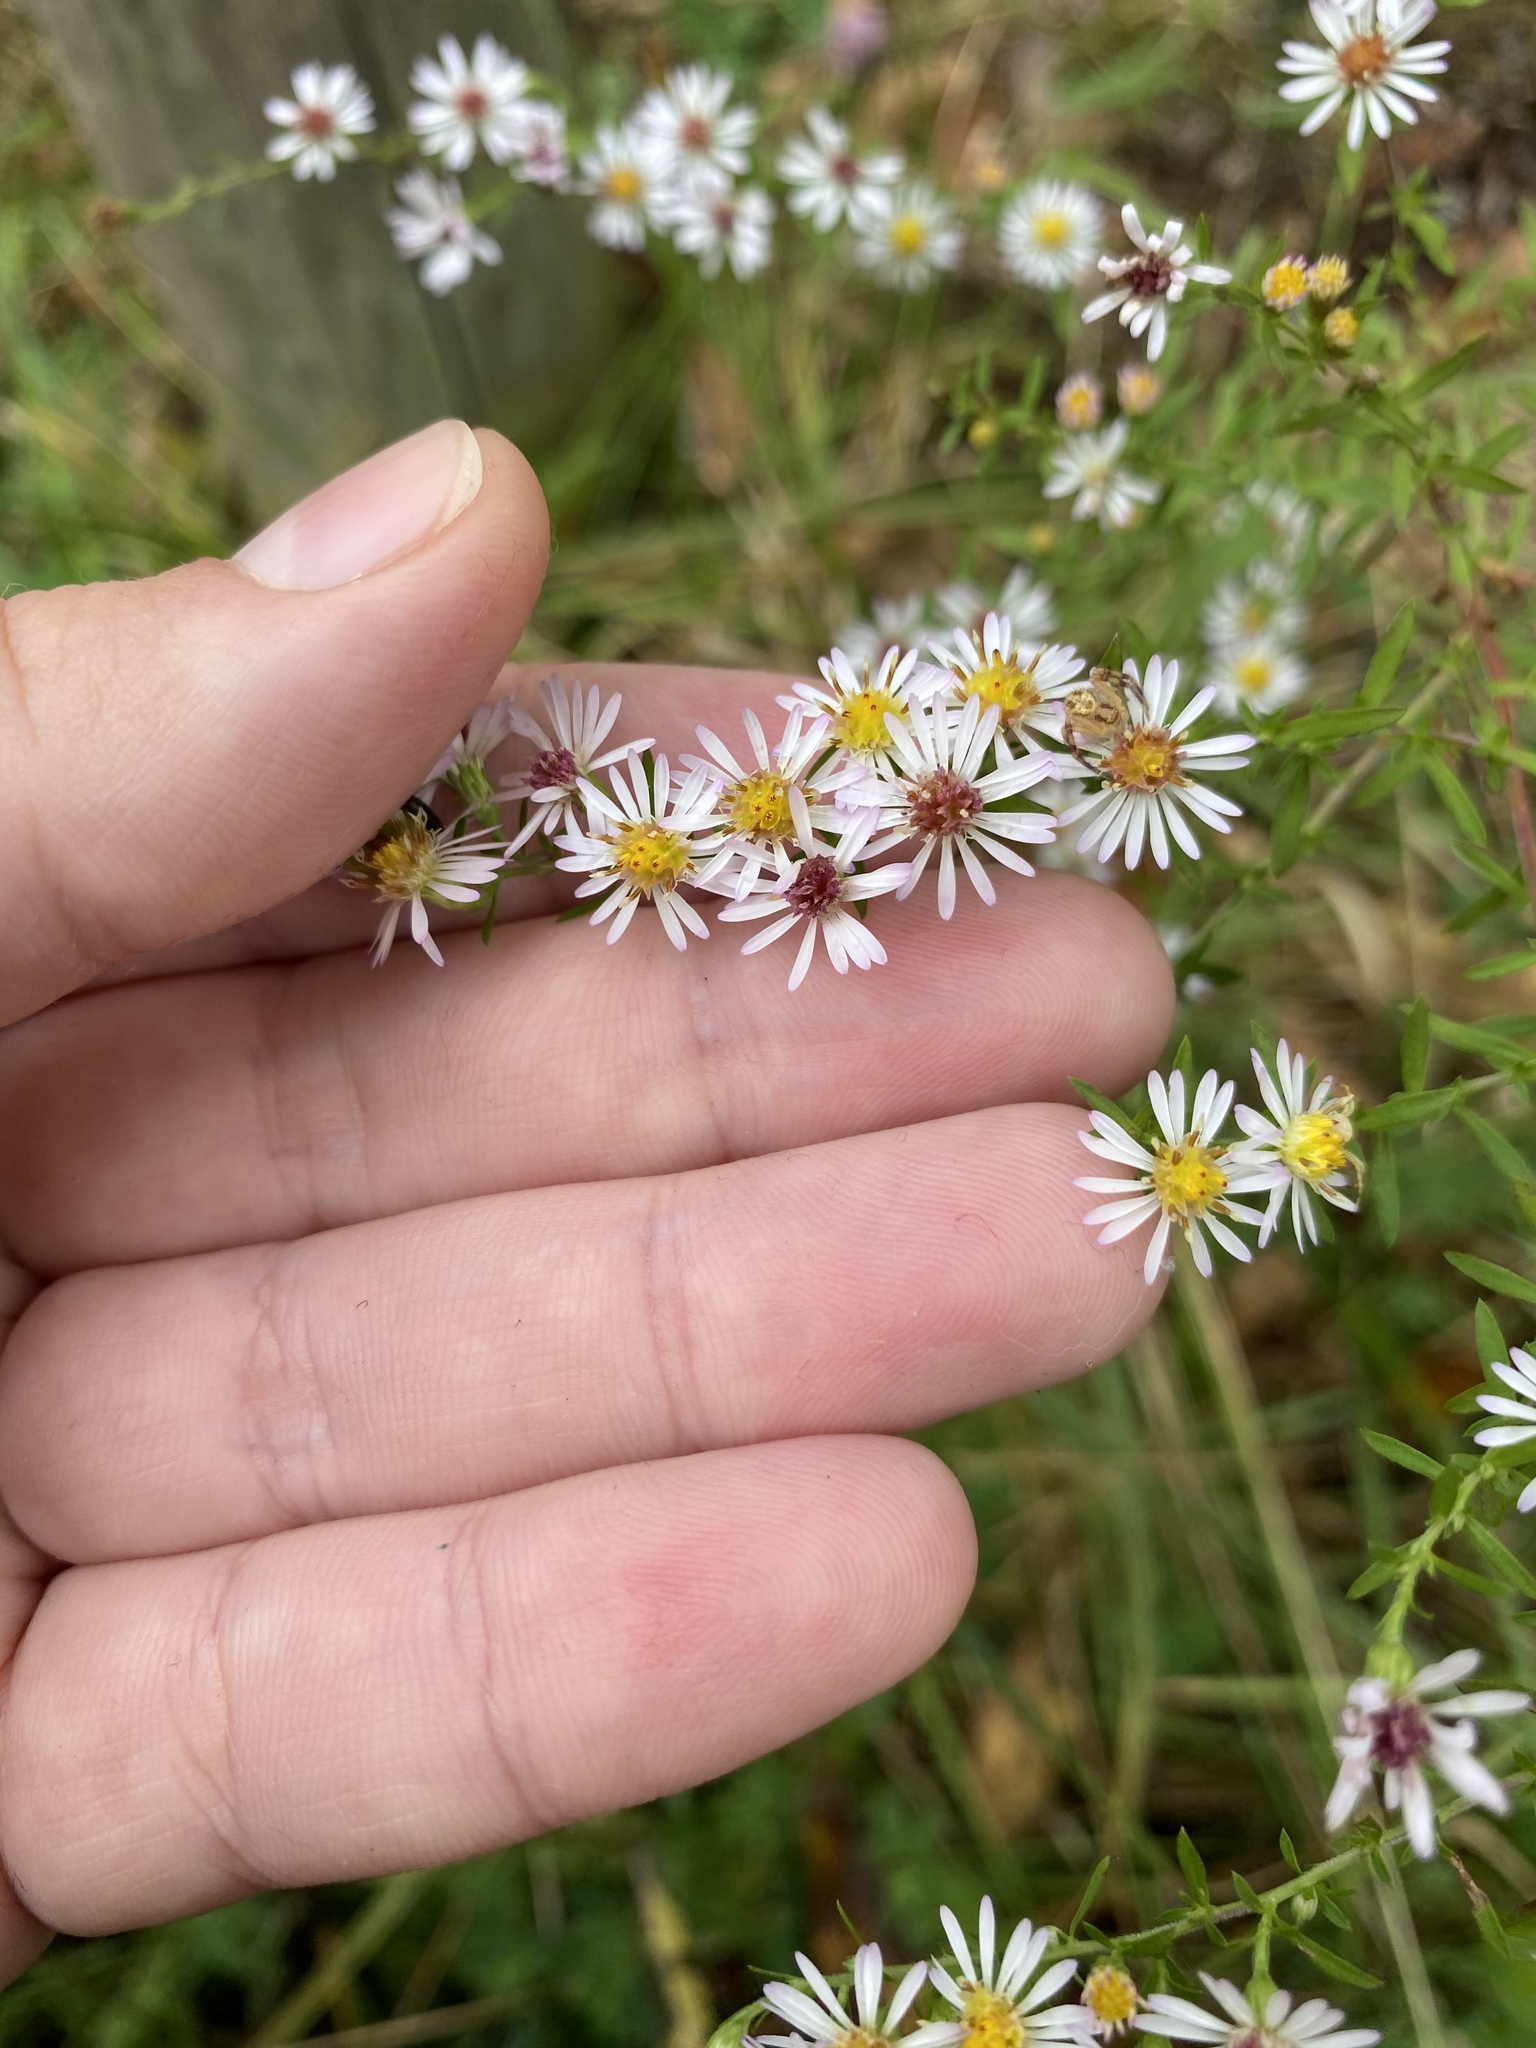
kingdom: Plantae
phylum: Tracheophyta
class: Magnoliopsida
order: Asterales
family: Asteraceae
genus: Symphyotrichum
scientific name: Symphyotrichum racemosum
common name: Small white aster
